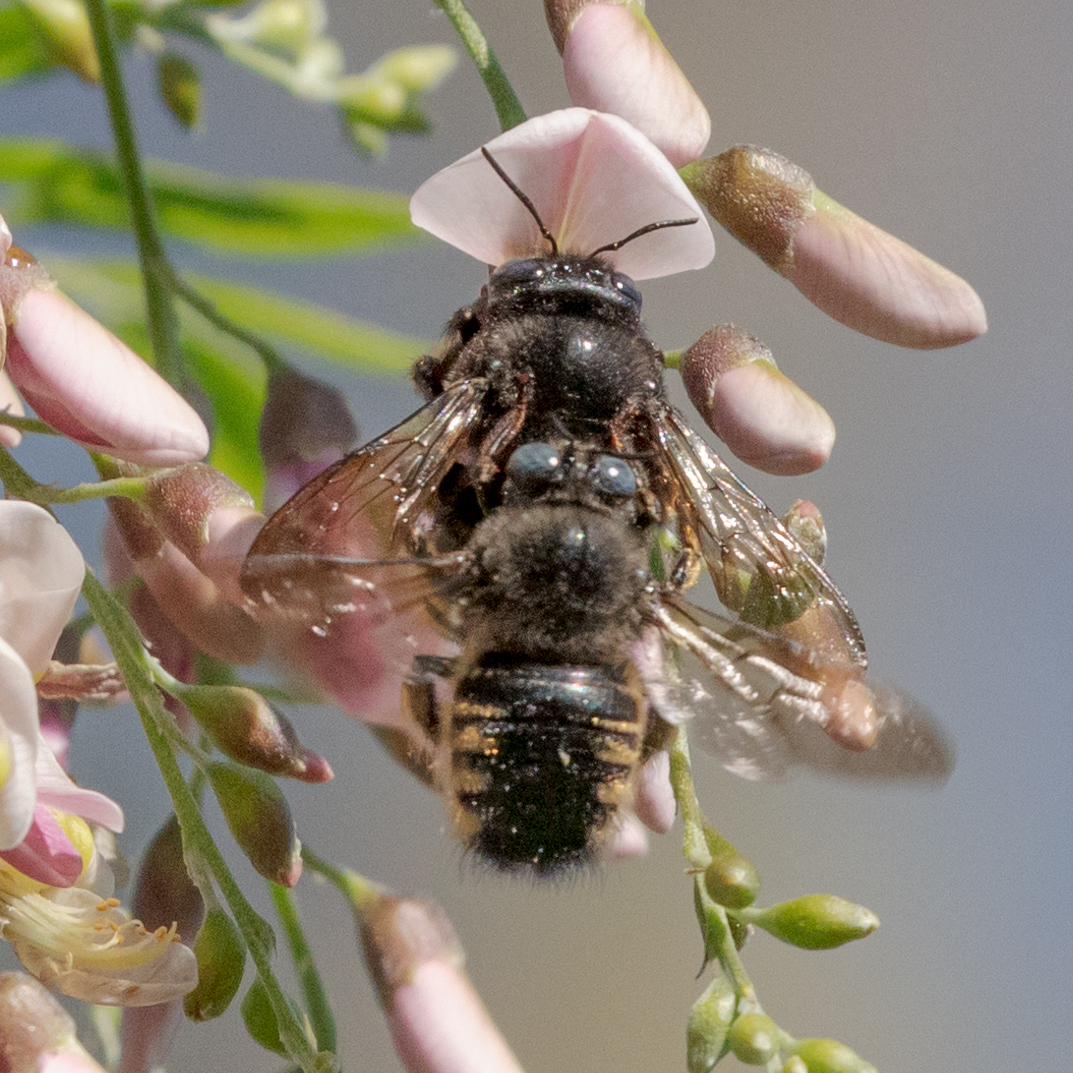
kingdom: Animalia
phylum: Arthropoda
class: Insecta
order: Hymenoptera
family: Apidae
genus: Xylocopa
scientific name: Xylocopa tabaniformis
